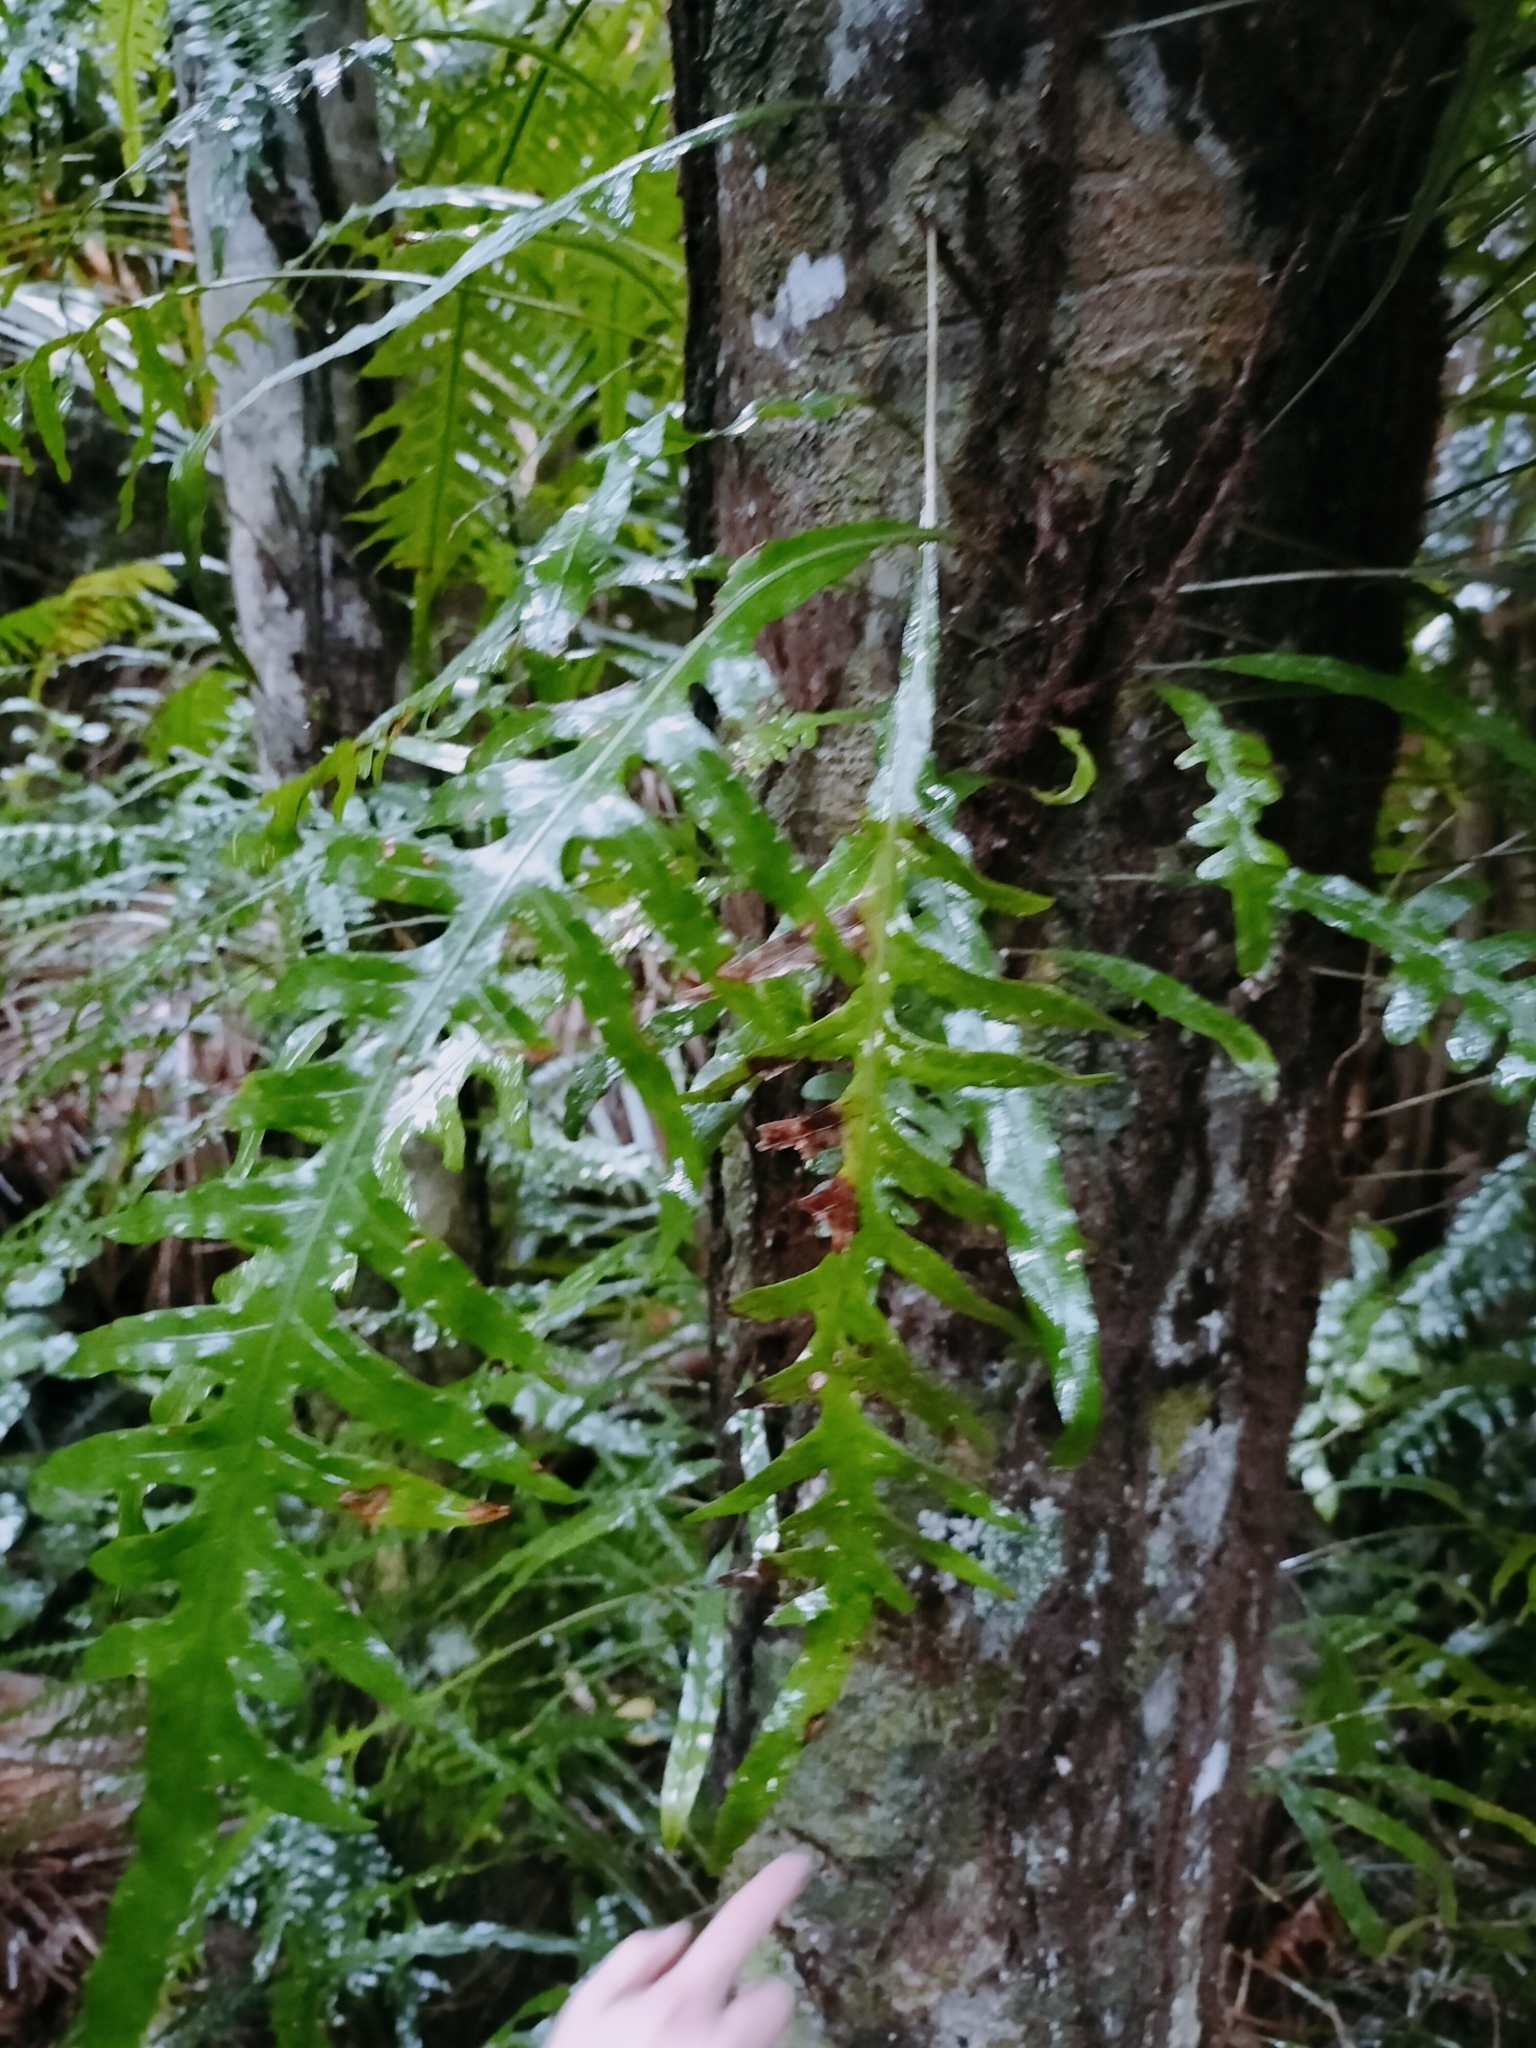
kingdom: Plantae
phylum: Tracheophyta
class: Polypodiopsida
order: Polypodiales
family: Polypodiaceae
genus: Lecanopteris
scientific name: Lecanopteris scandens
